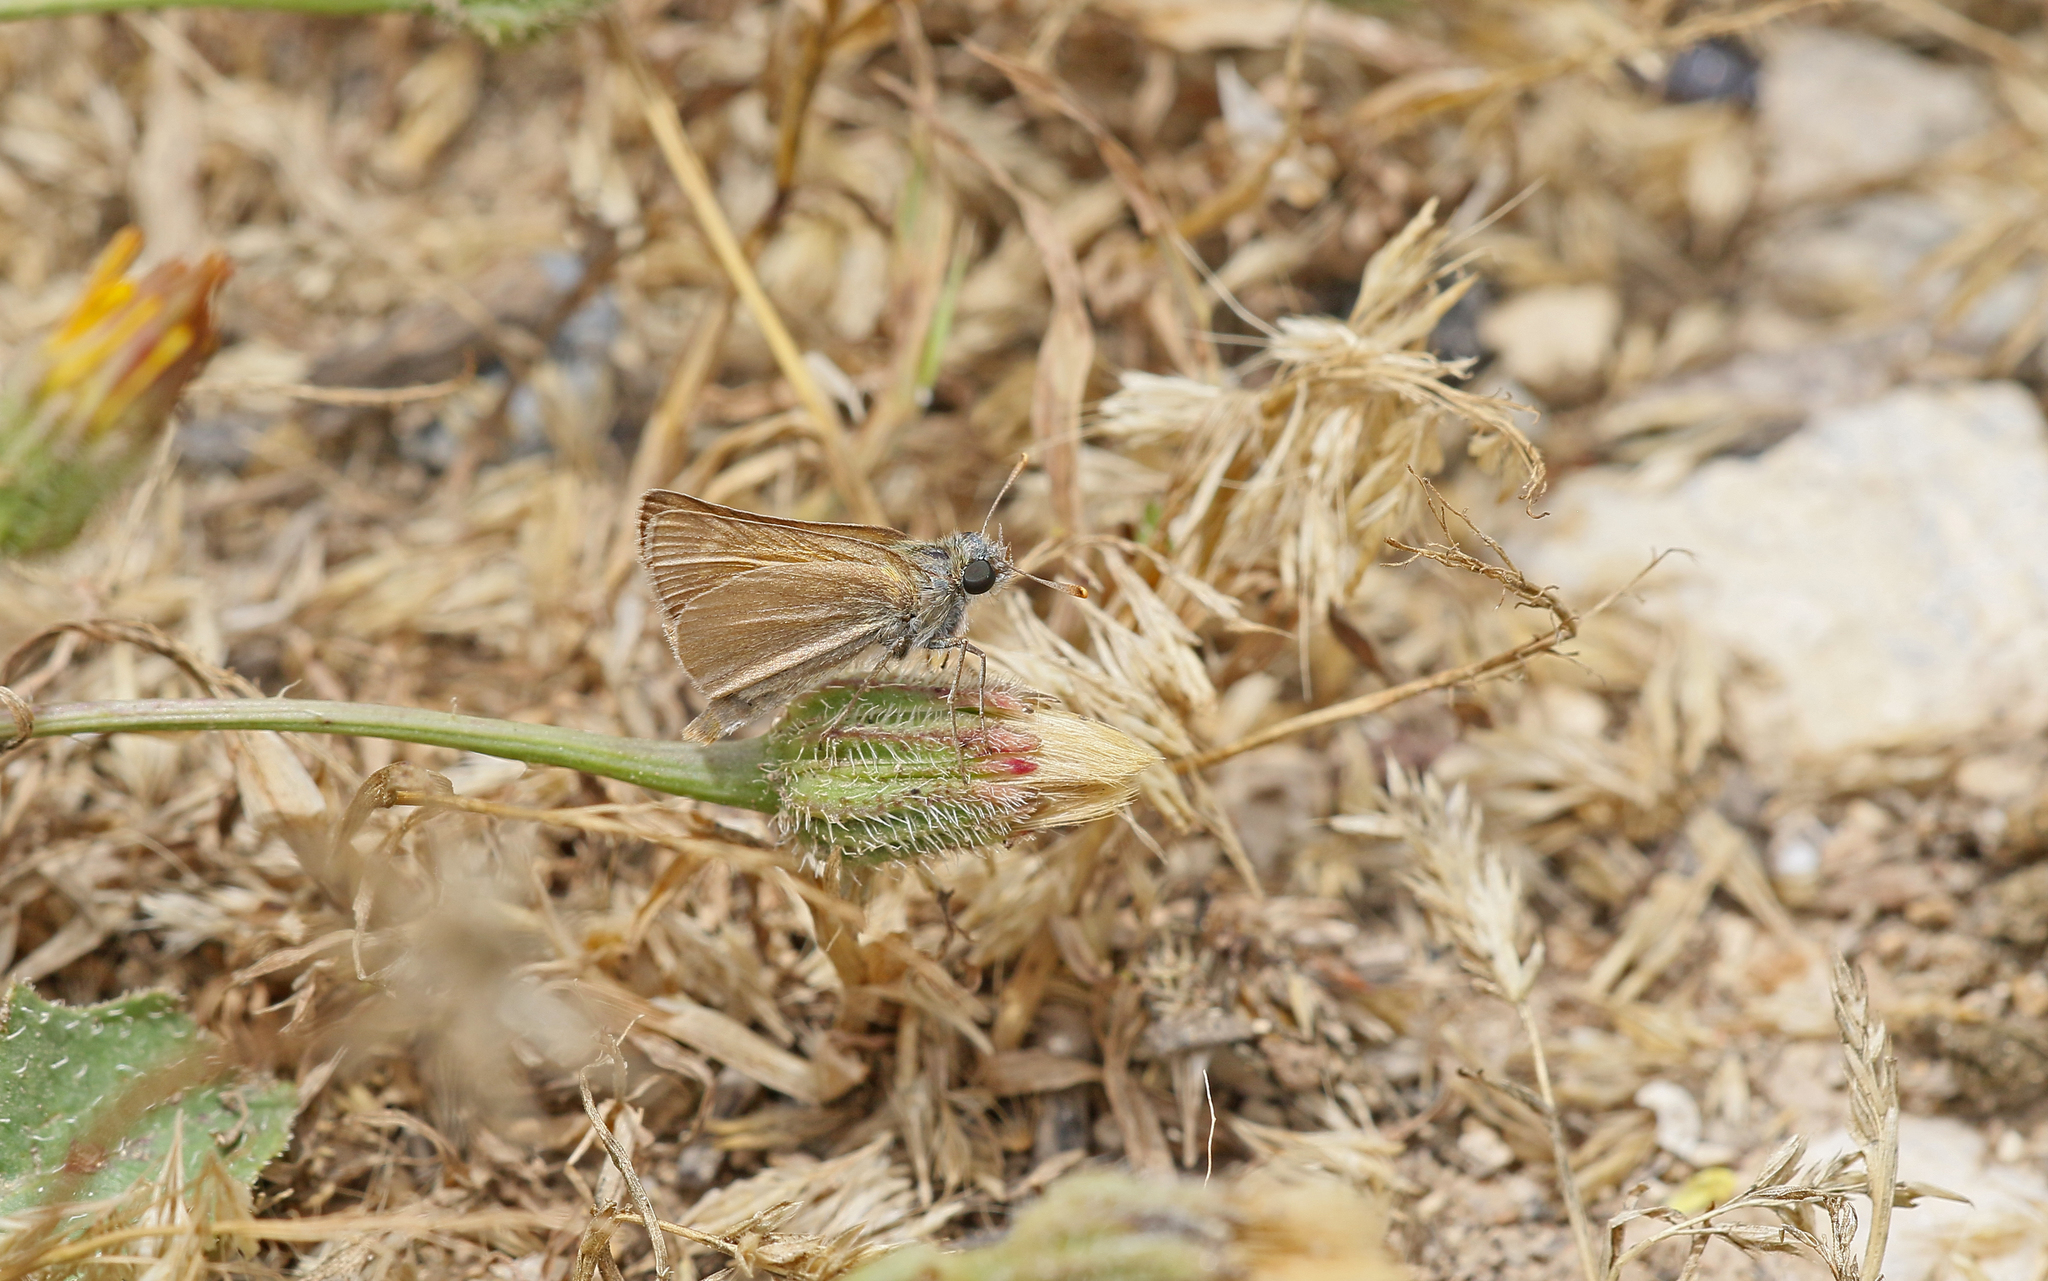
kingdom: Animalia
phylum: Arthropoda
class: Insecta
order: Lepidoptera
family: Hesperiidae
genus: Thymelicus
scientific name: Thymelicus acteon
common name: Lulworth skipper
